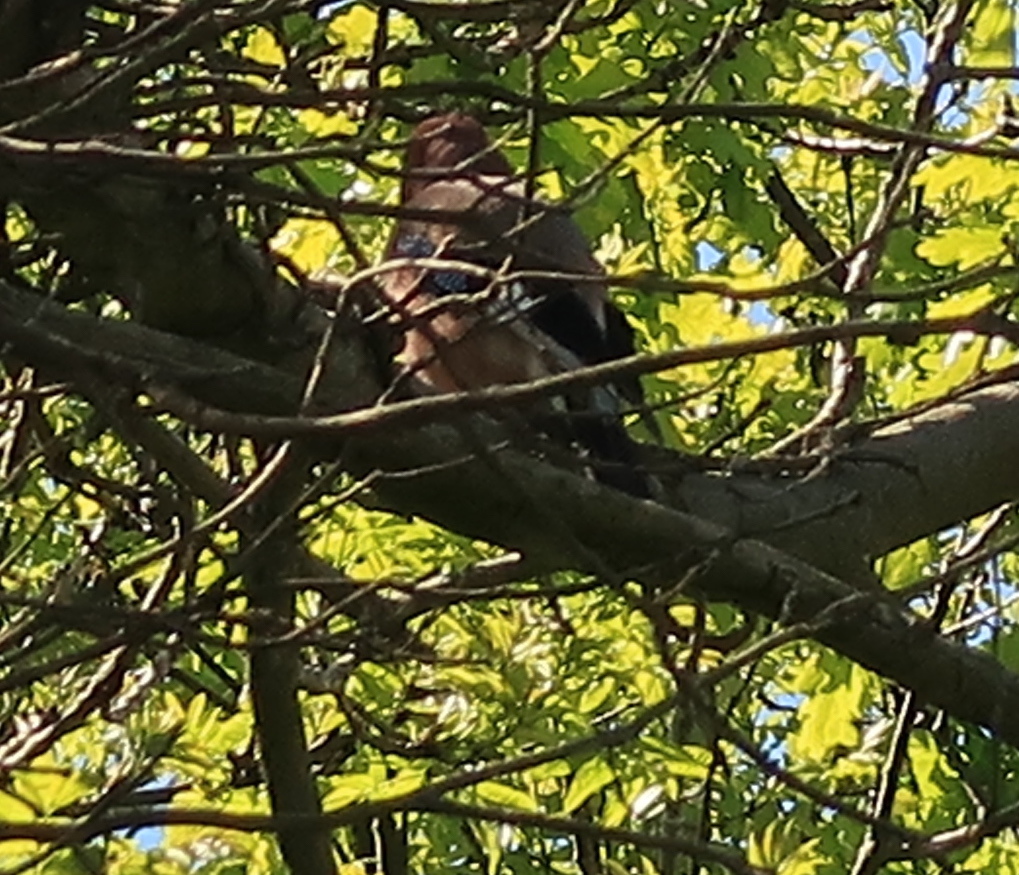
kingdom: Animalia
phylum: Chordata
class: Aves
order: Passeriformes
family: Corvidae
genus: Garrulus
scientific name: Garrulus glandarius
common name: Eurasian jay
